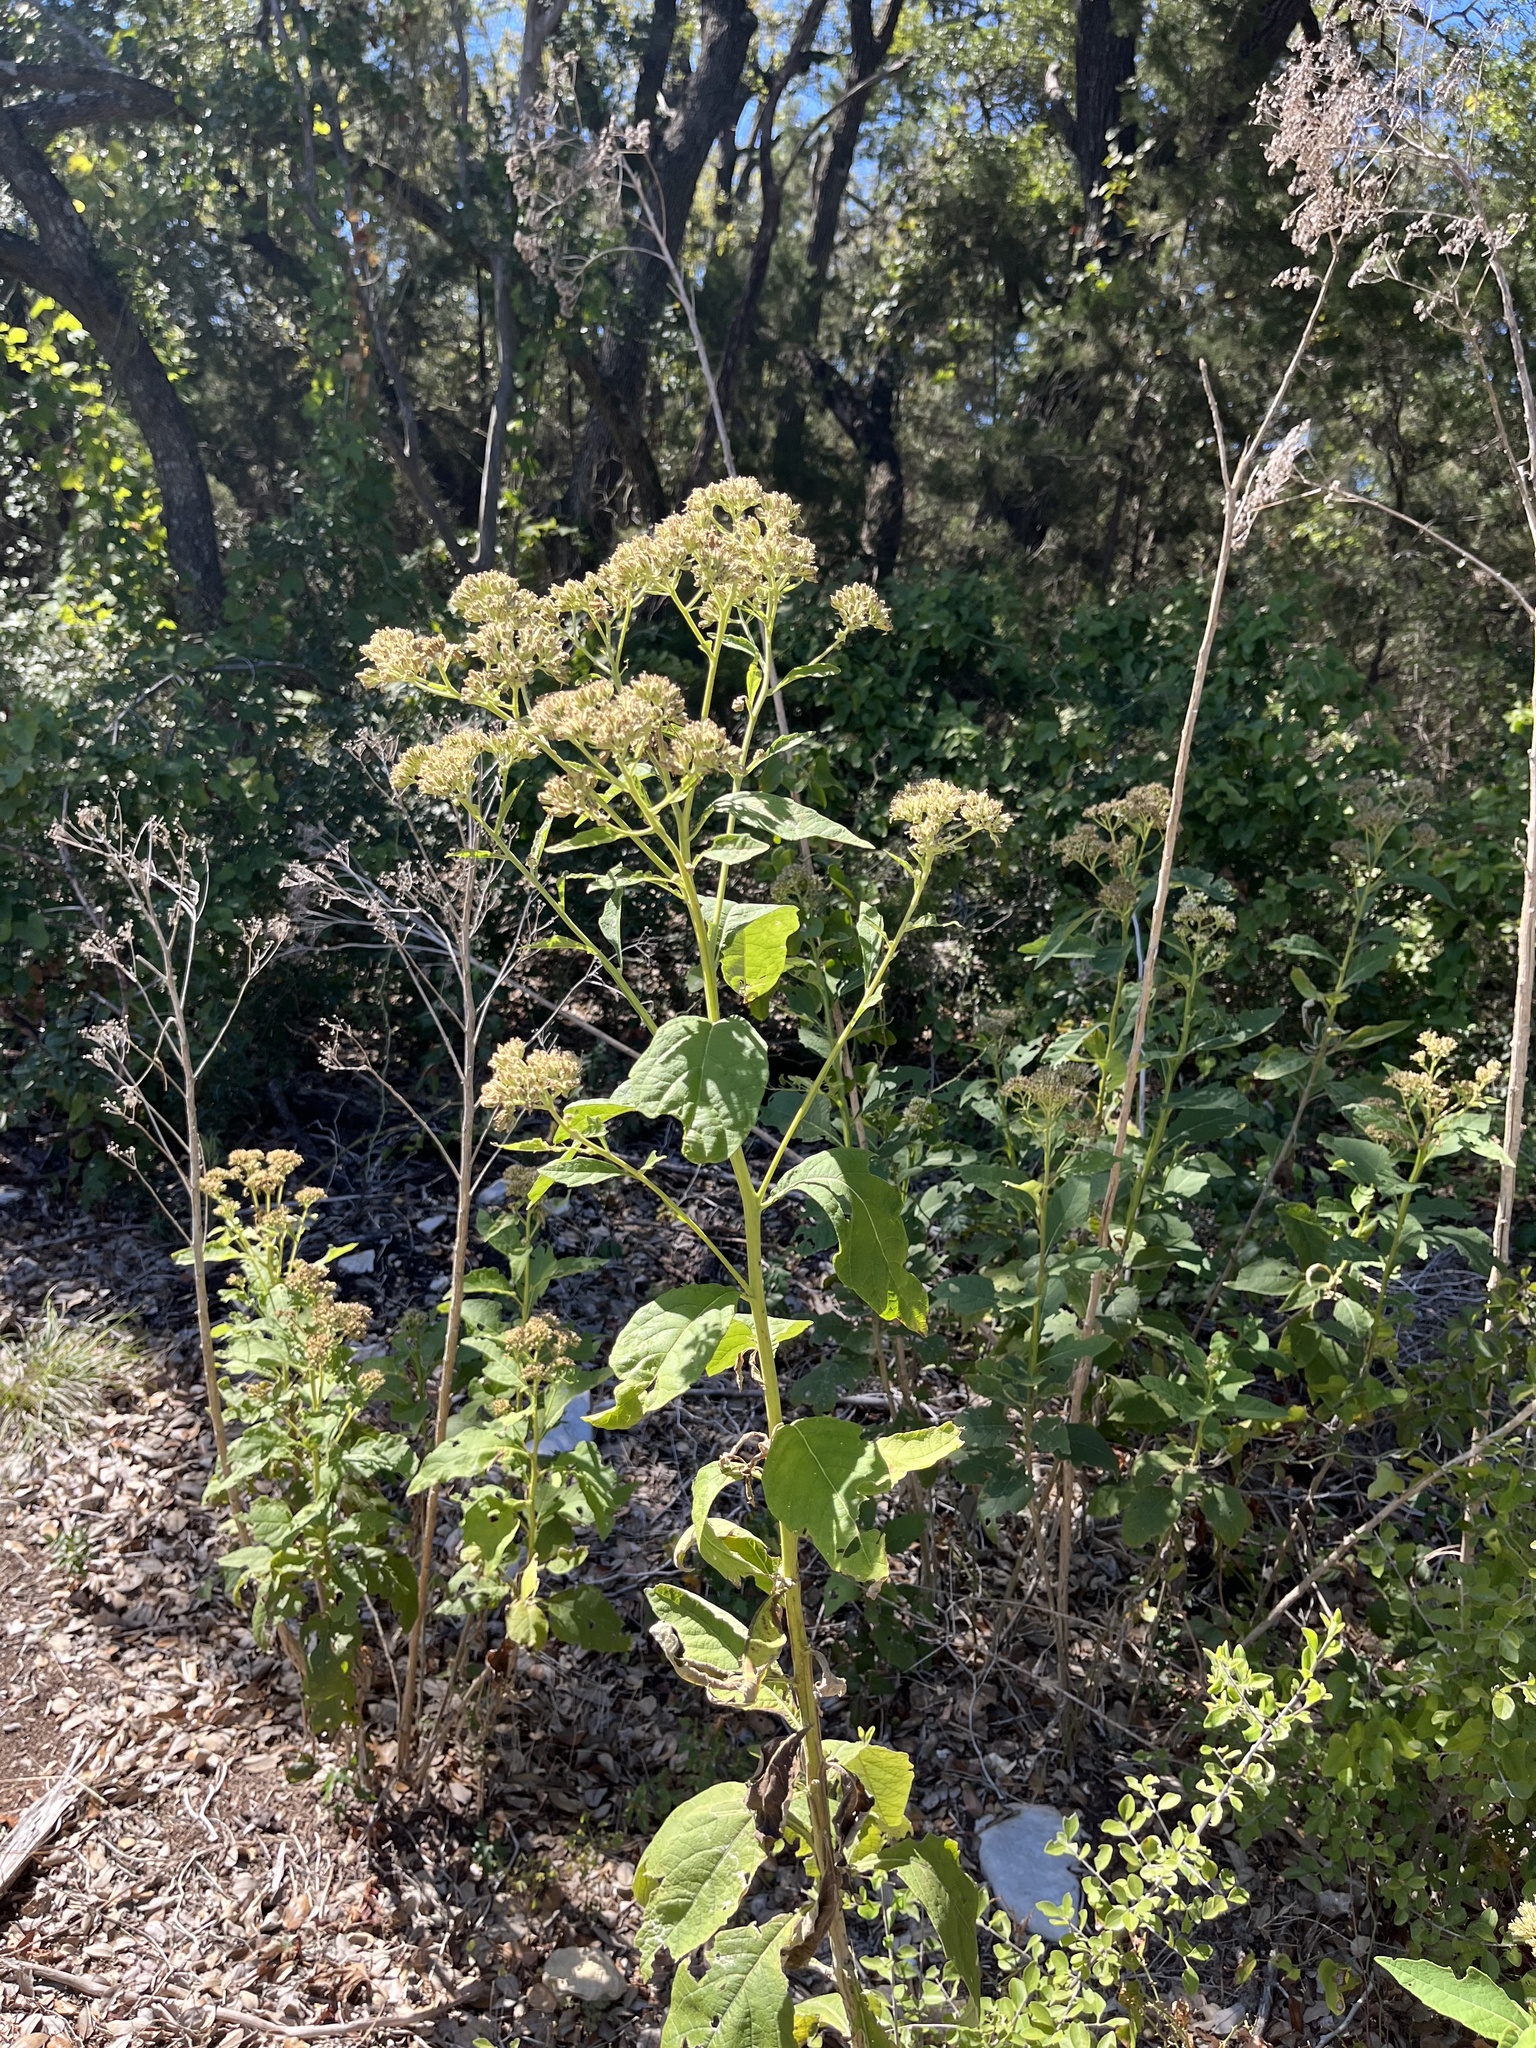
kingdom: Plantae
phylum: Tracheophyta
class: Magnoliopsida
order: Asterales
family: Asteraceae
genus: Verbesina
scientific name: Verbesina virginica
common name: Frostweed
